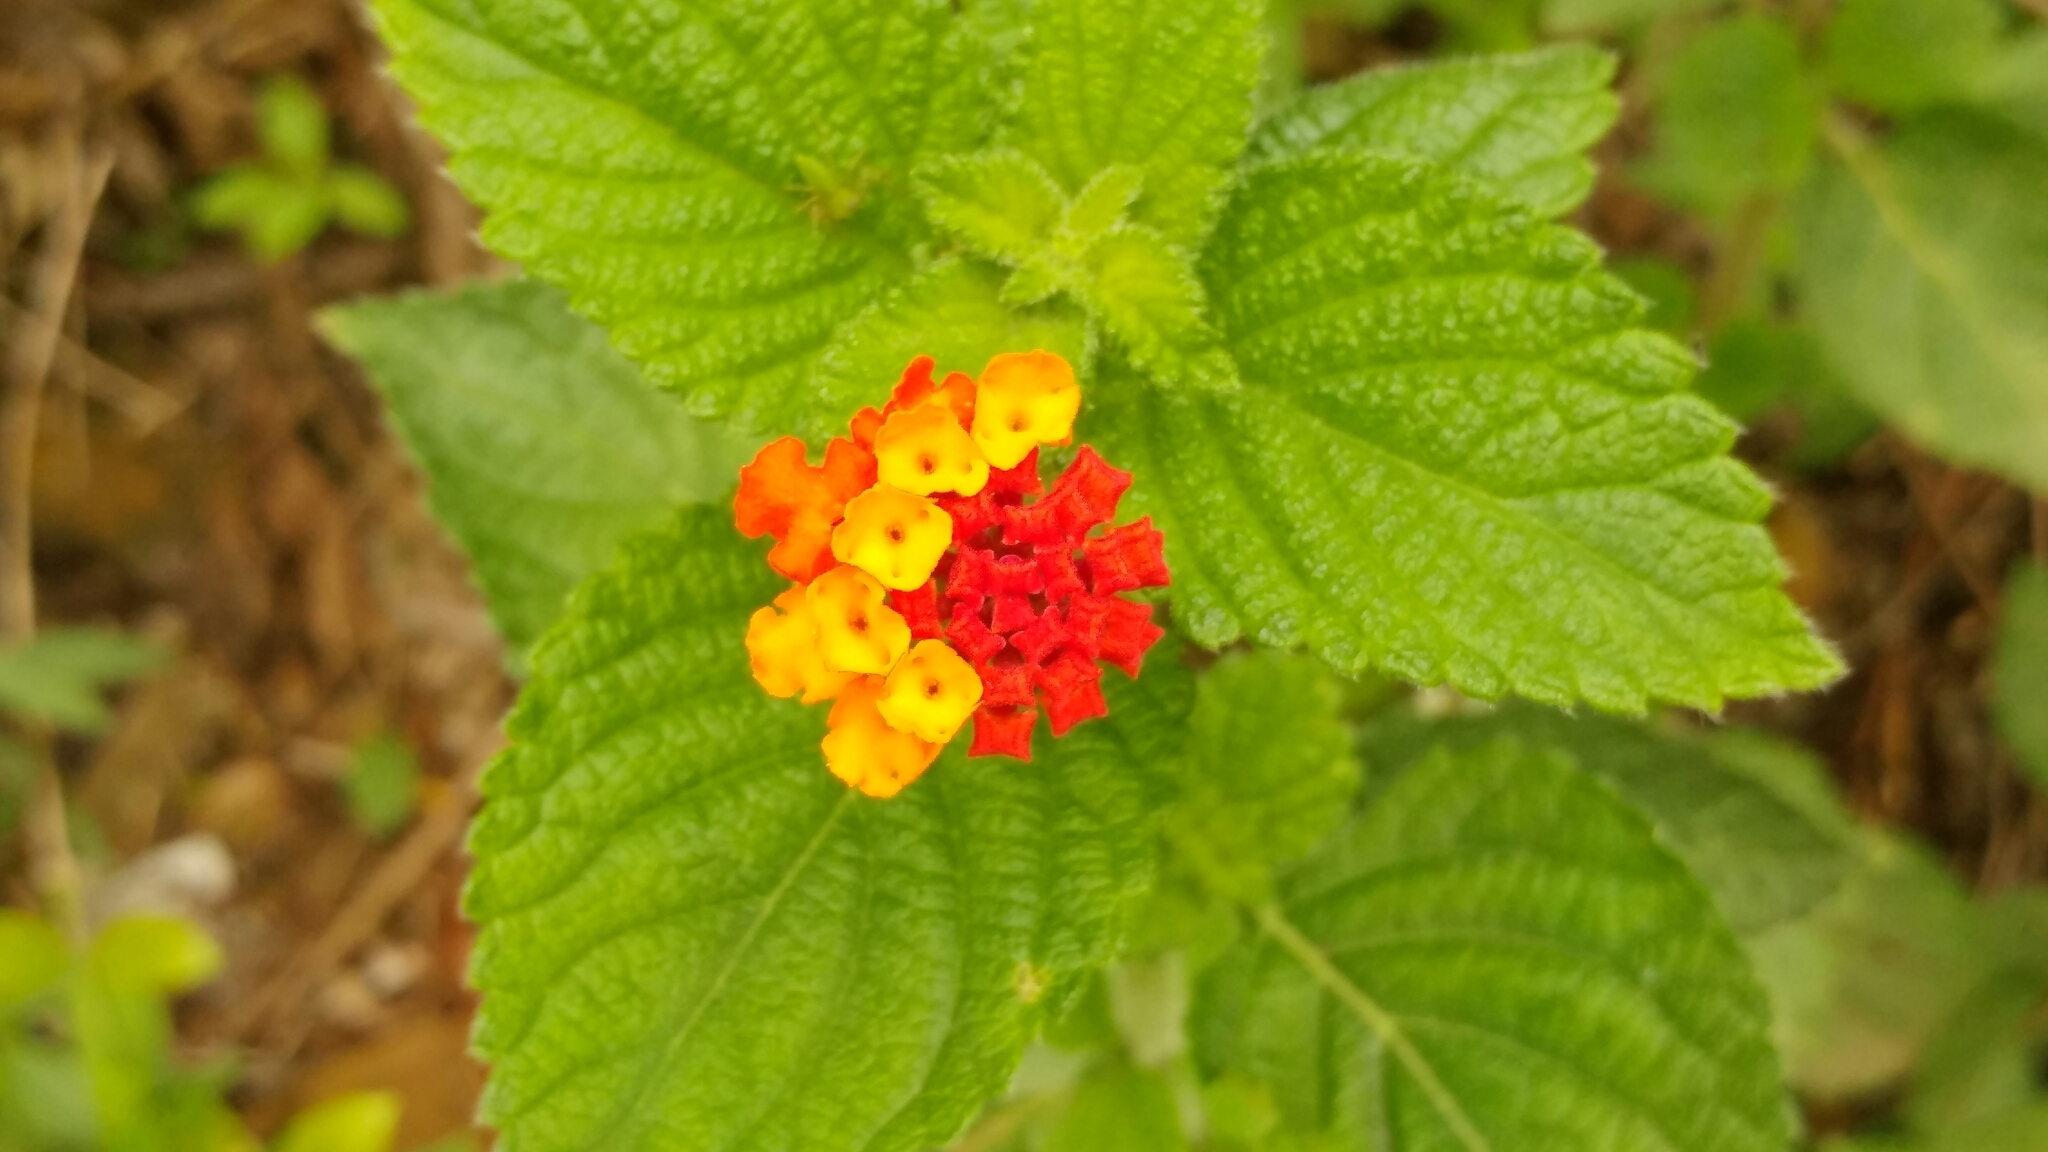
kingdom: Plantae
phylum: Tracheophyta
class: Magnoliopsida
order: Lamiales
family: Verbenaceae
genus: Lantana
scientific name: Lantana camara
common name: Lantana
